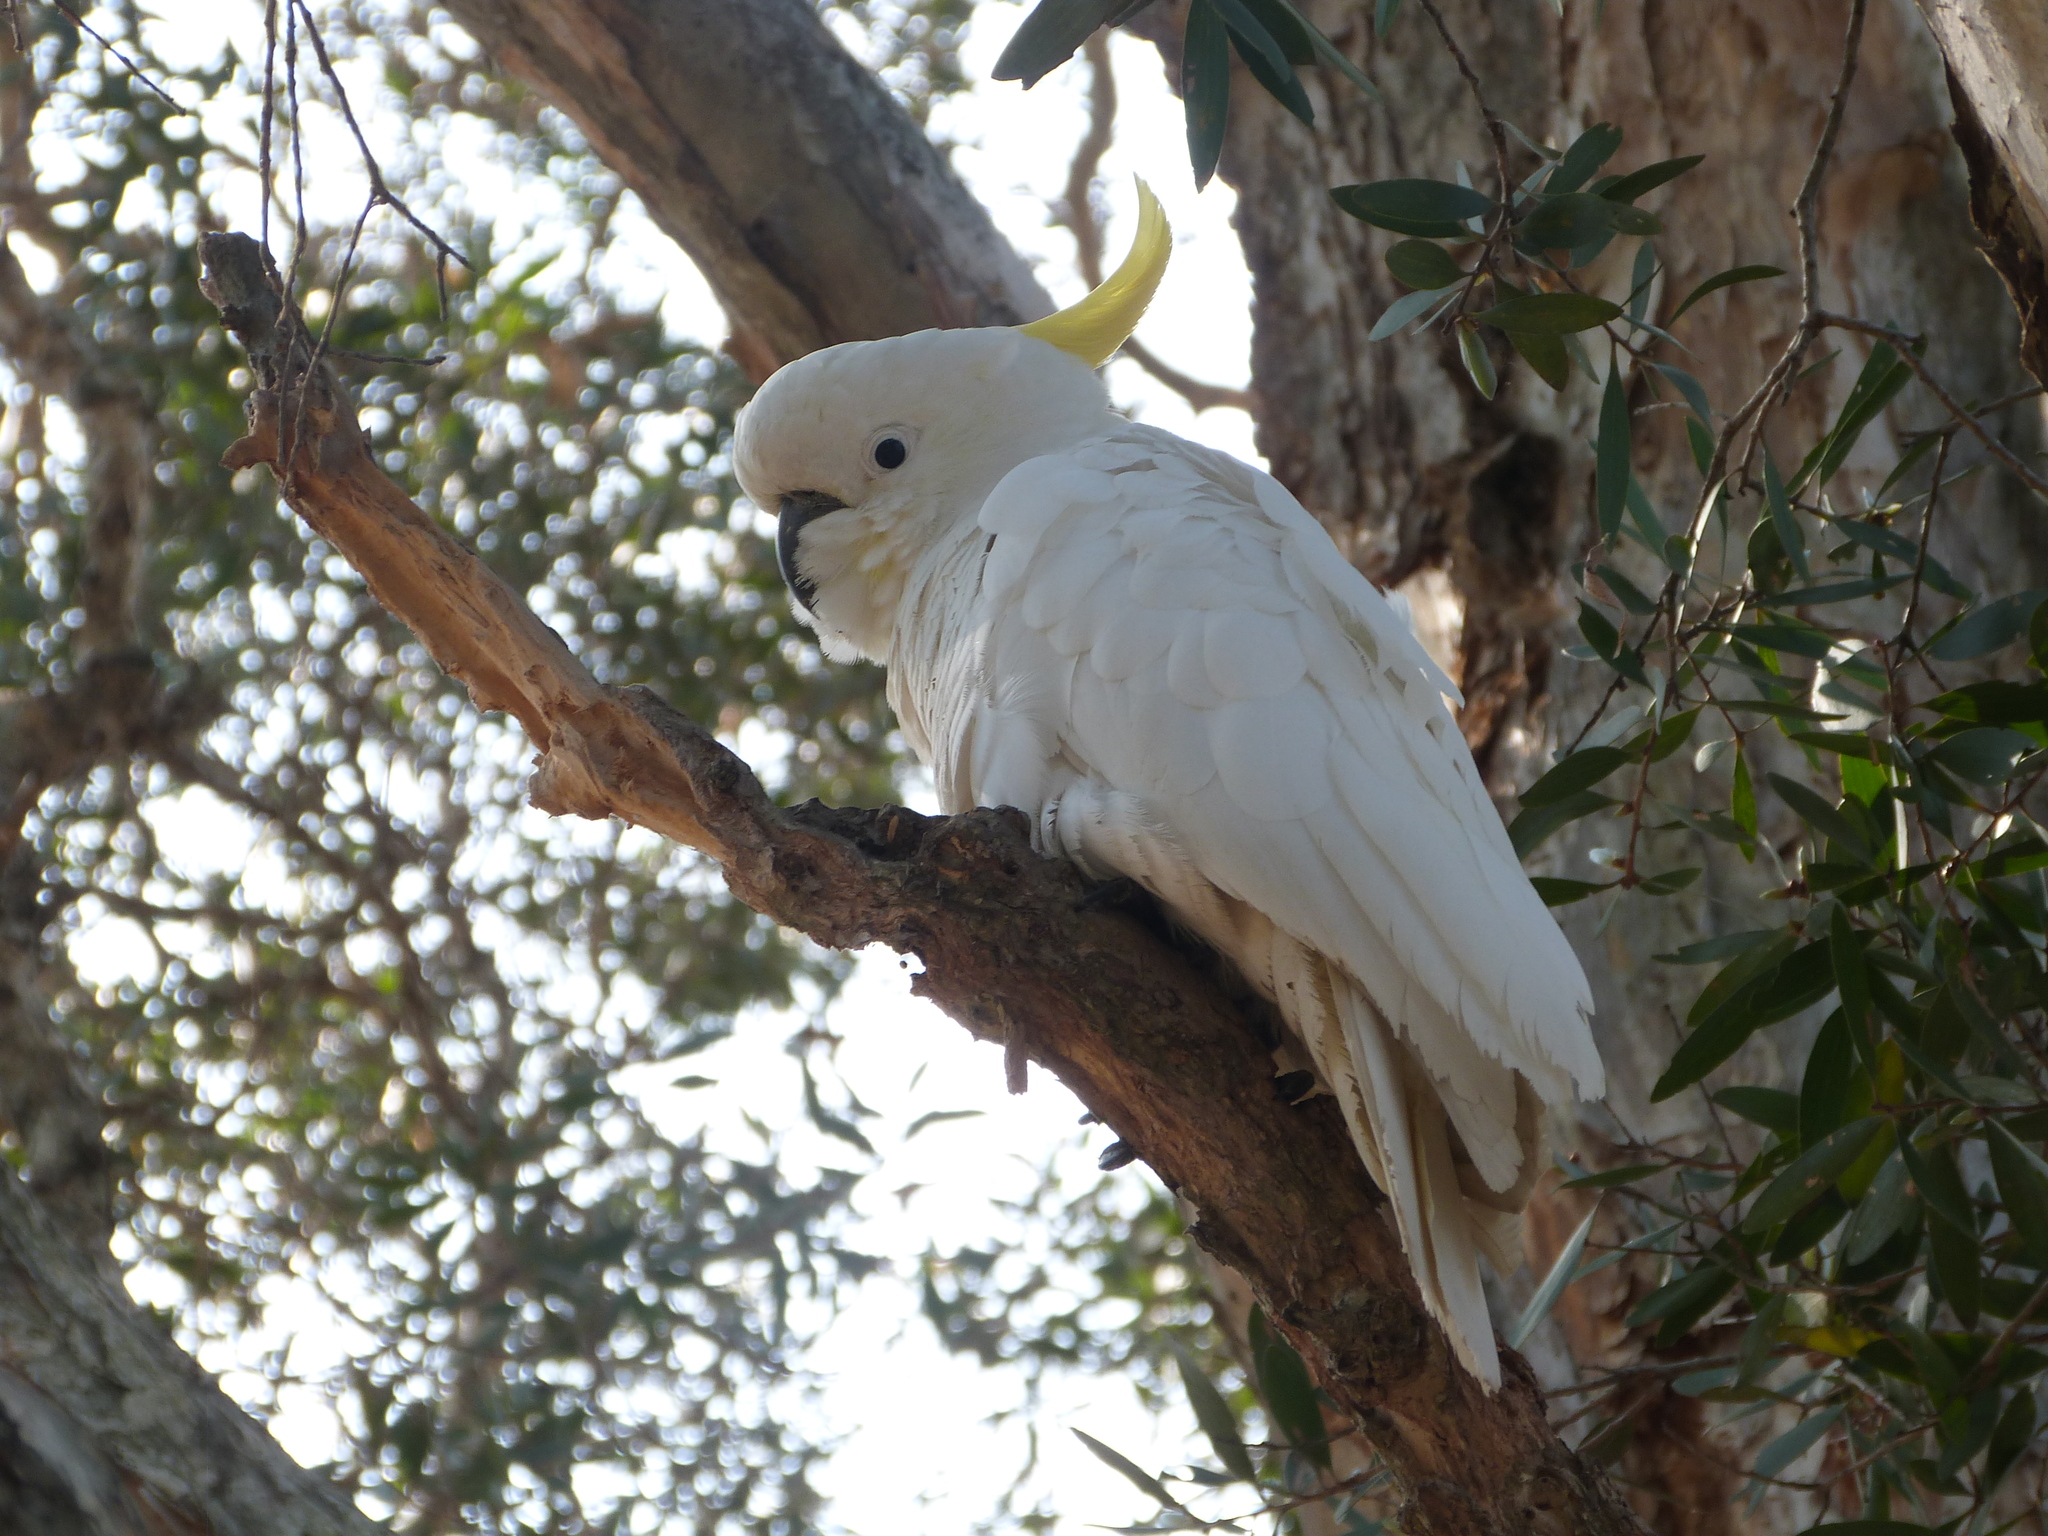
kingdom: Animalia
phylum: Chordata
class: Aves
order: Psittaciformes
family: Psittacidae
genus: Cacatua
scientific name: Cacatua galerita
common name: Sulphur-crested cockatoo
